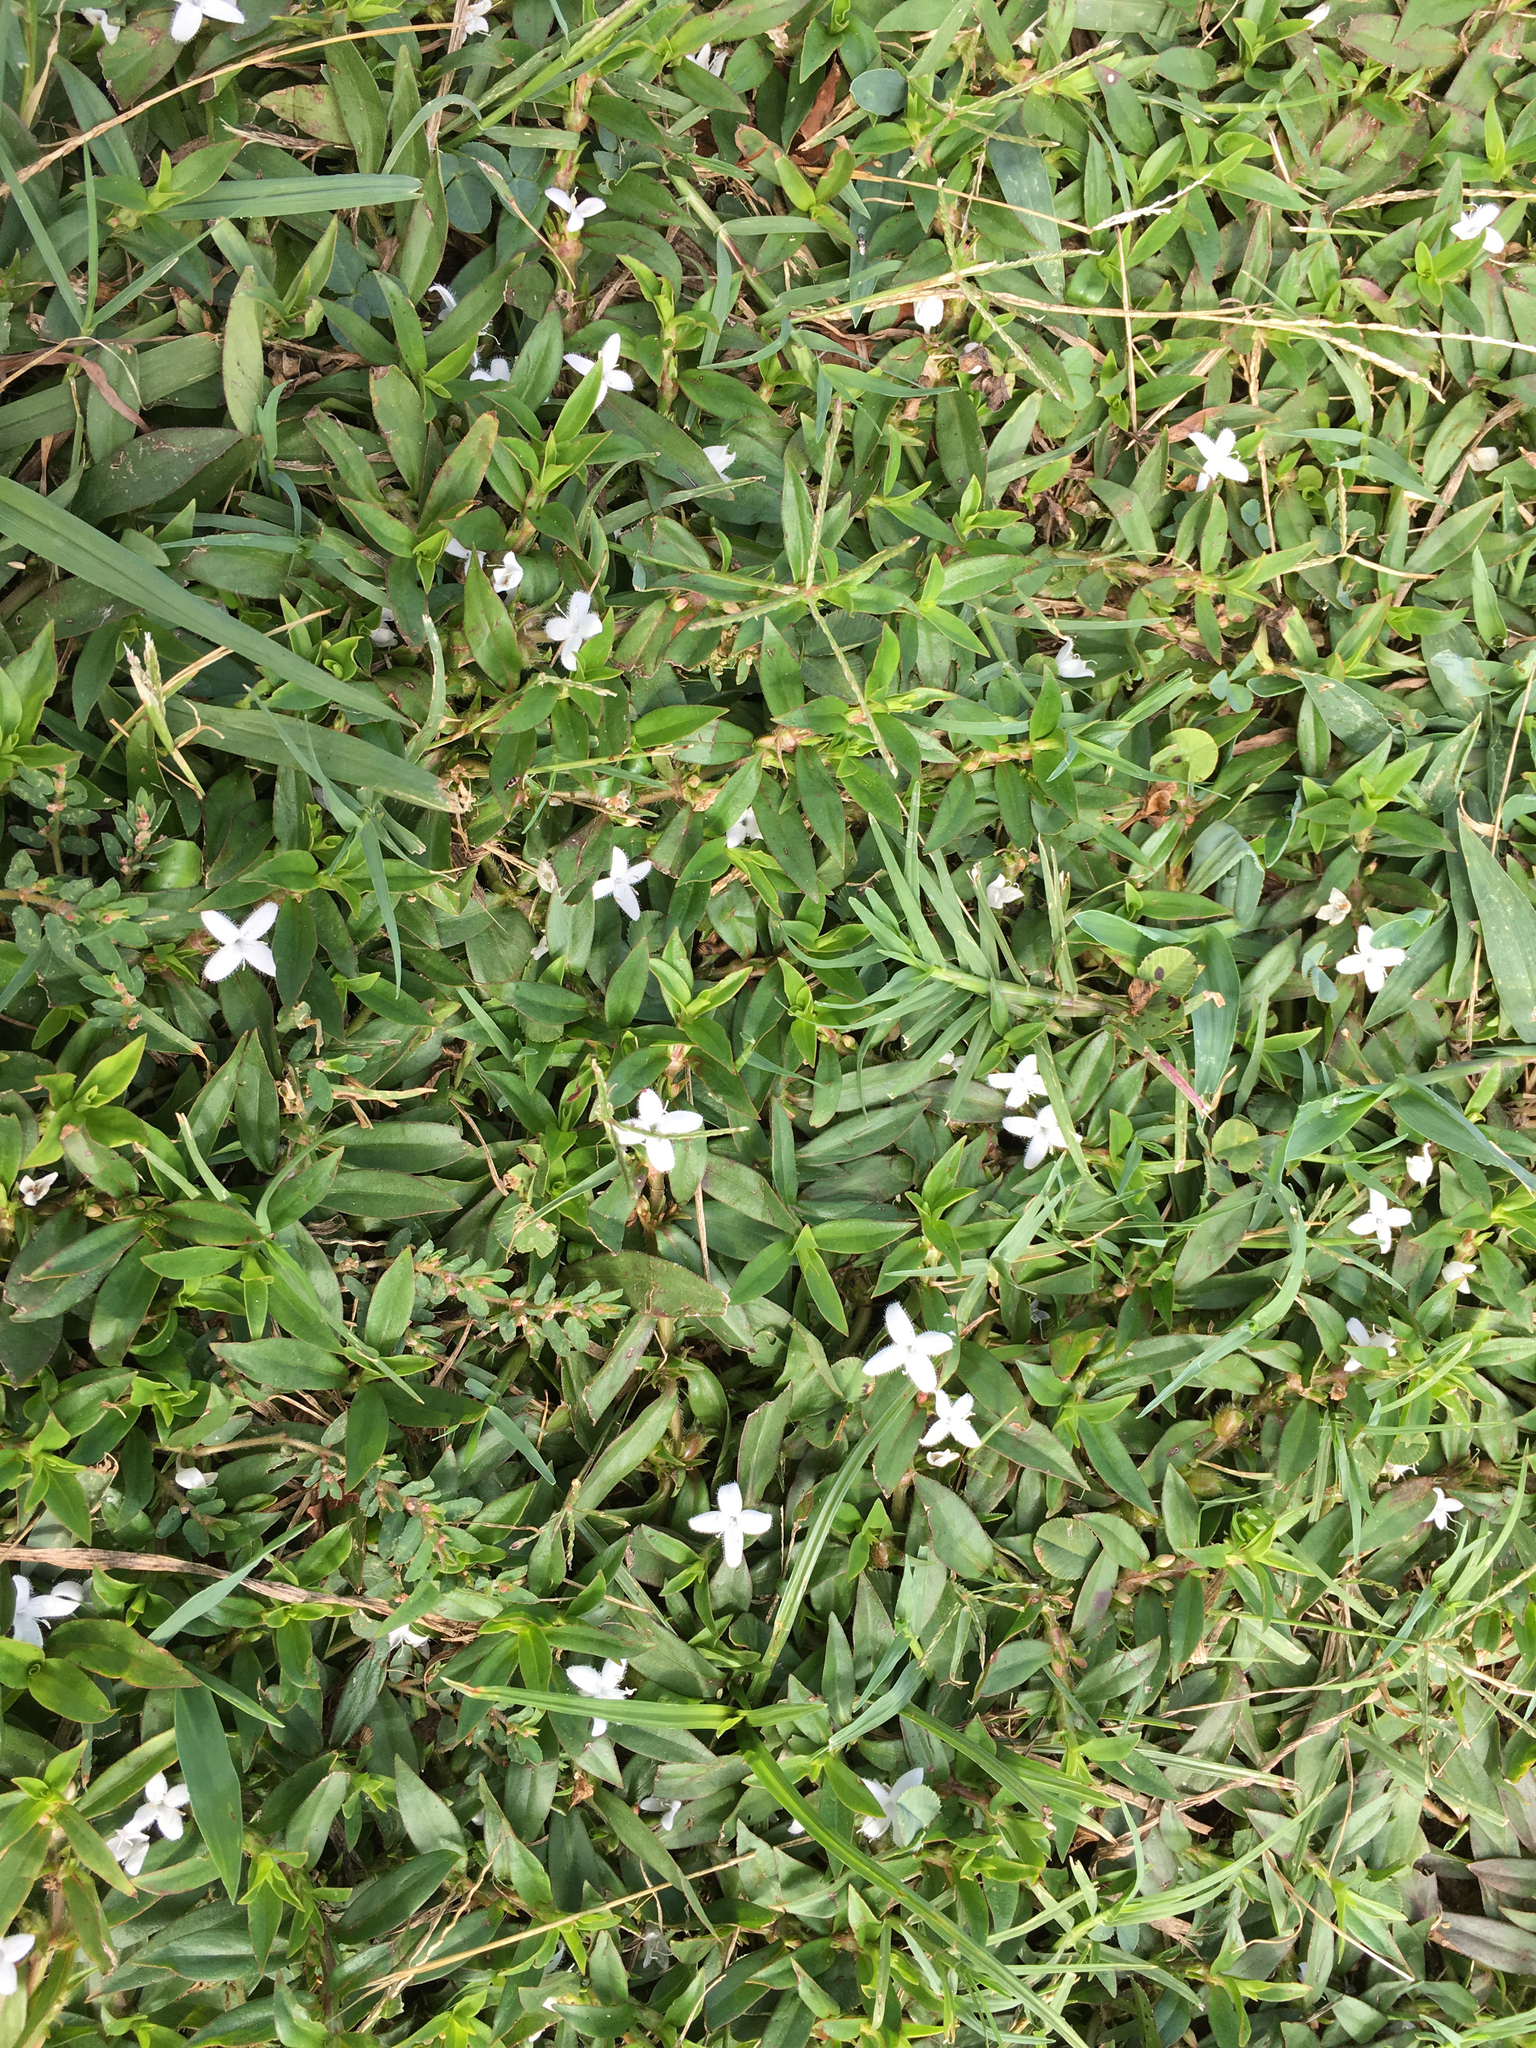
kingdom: Plantae
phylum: Tracheophyta
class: Magnoliopsida
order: Gentianales
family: Rubiaceae
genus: Diodia
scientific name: Diodia virginiana
